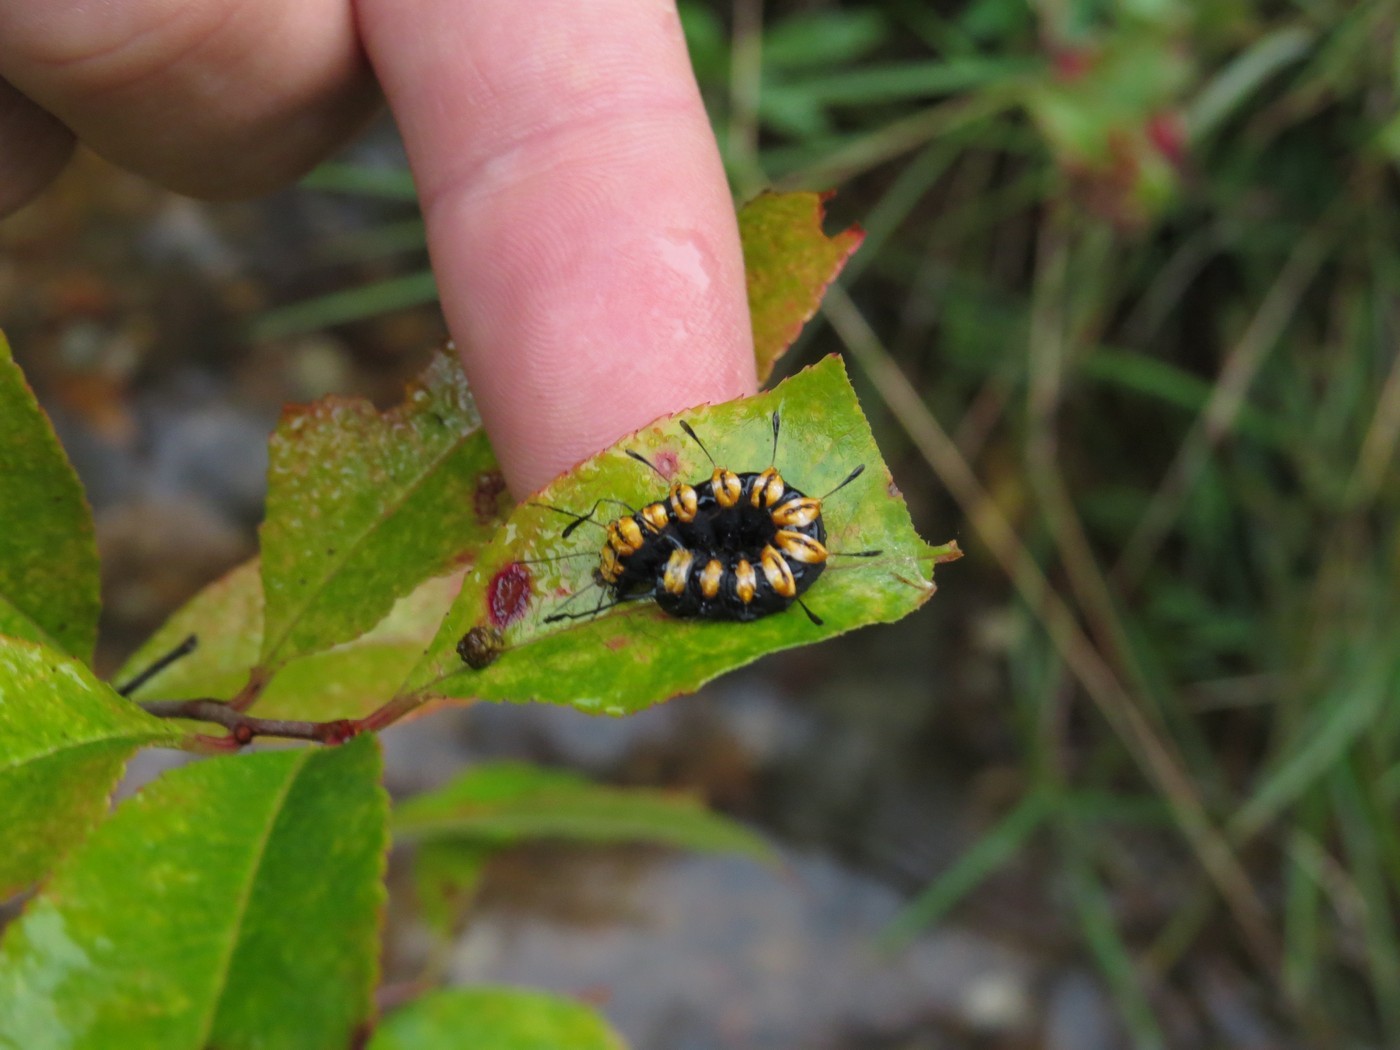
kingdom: Animalia
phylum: Arthropoda
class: Insecta
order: Lepidoptera
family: Noctuidae
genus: Acronicta
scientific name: Acronicta funeralis
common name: Funerary dagger
